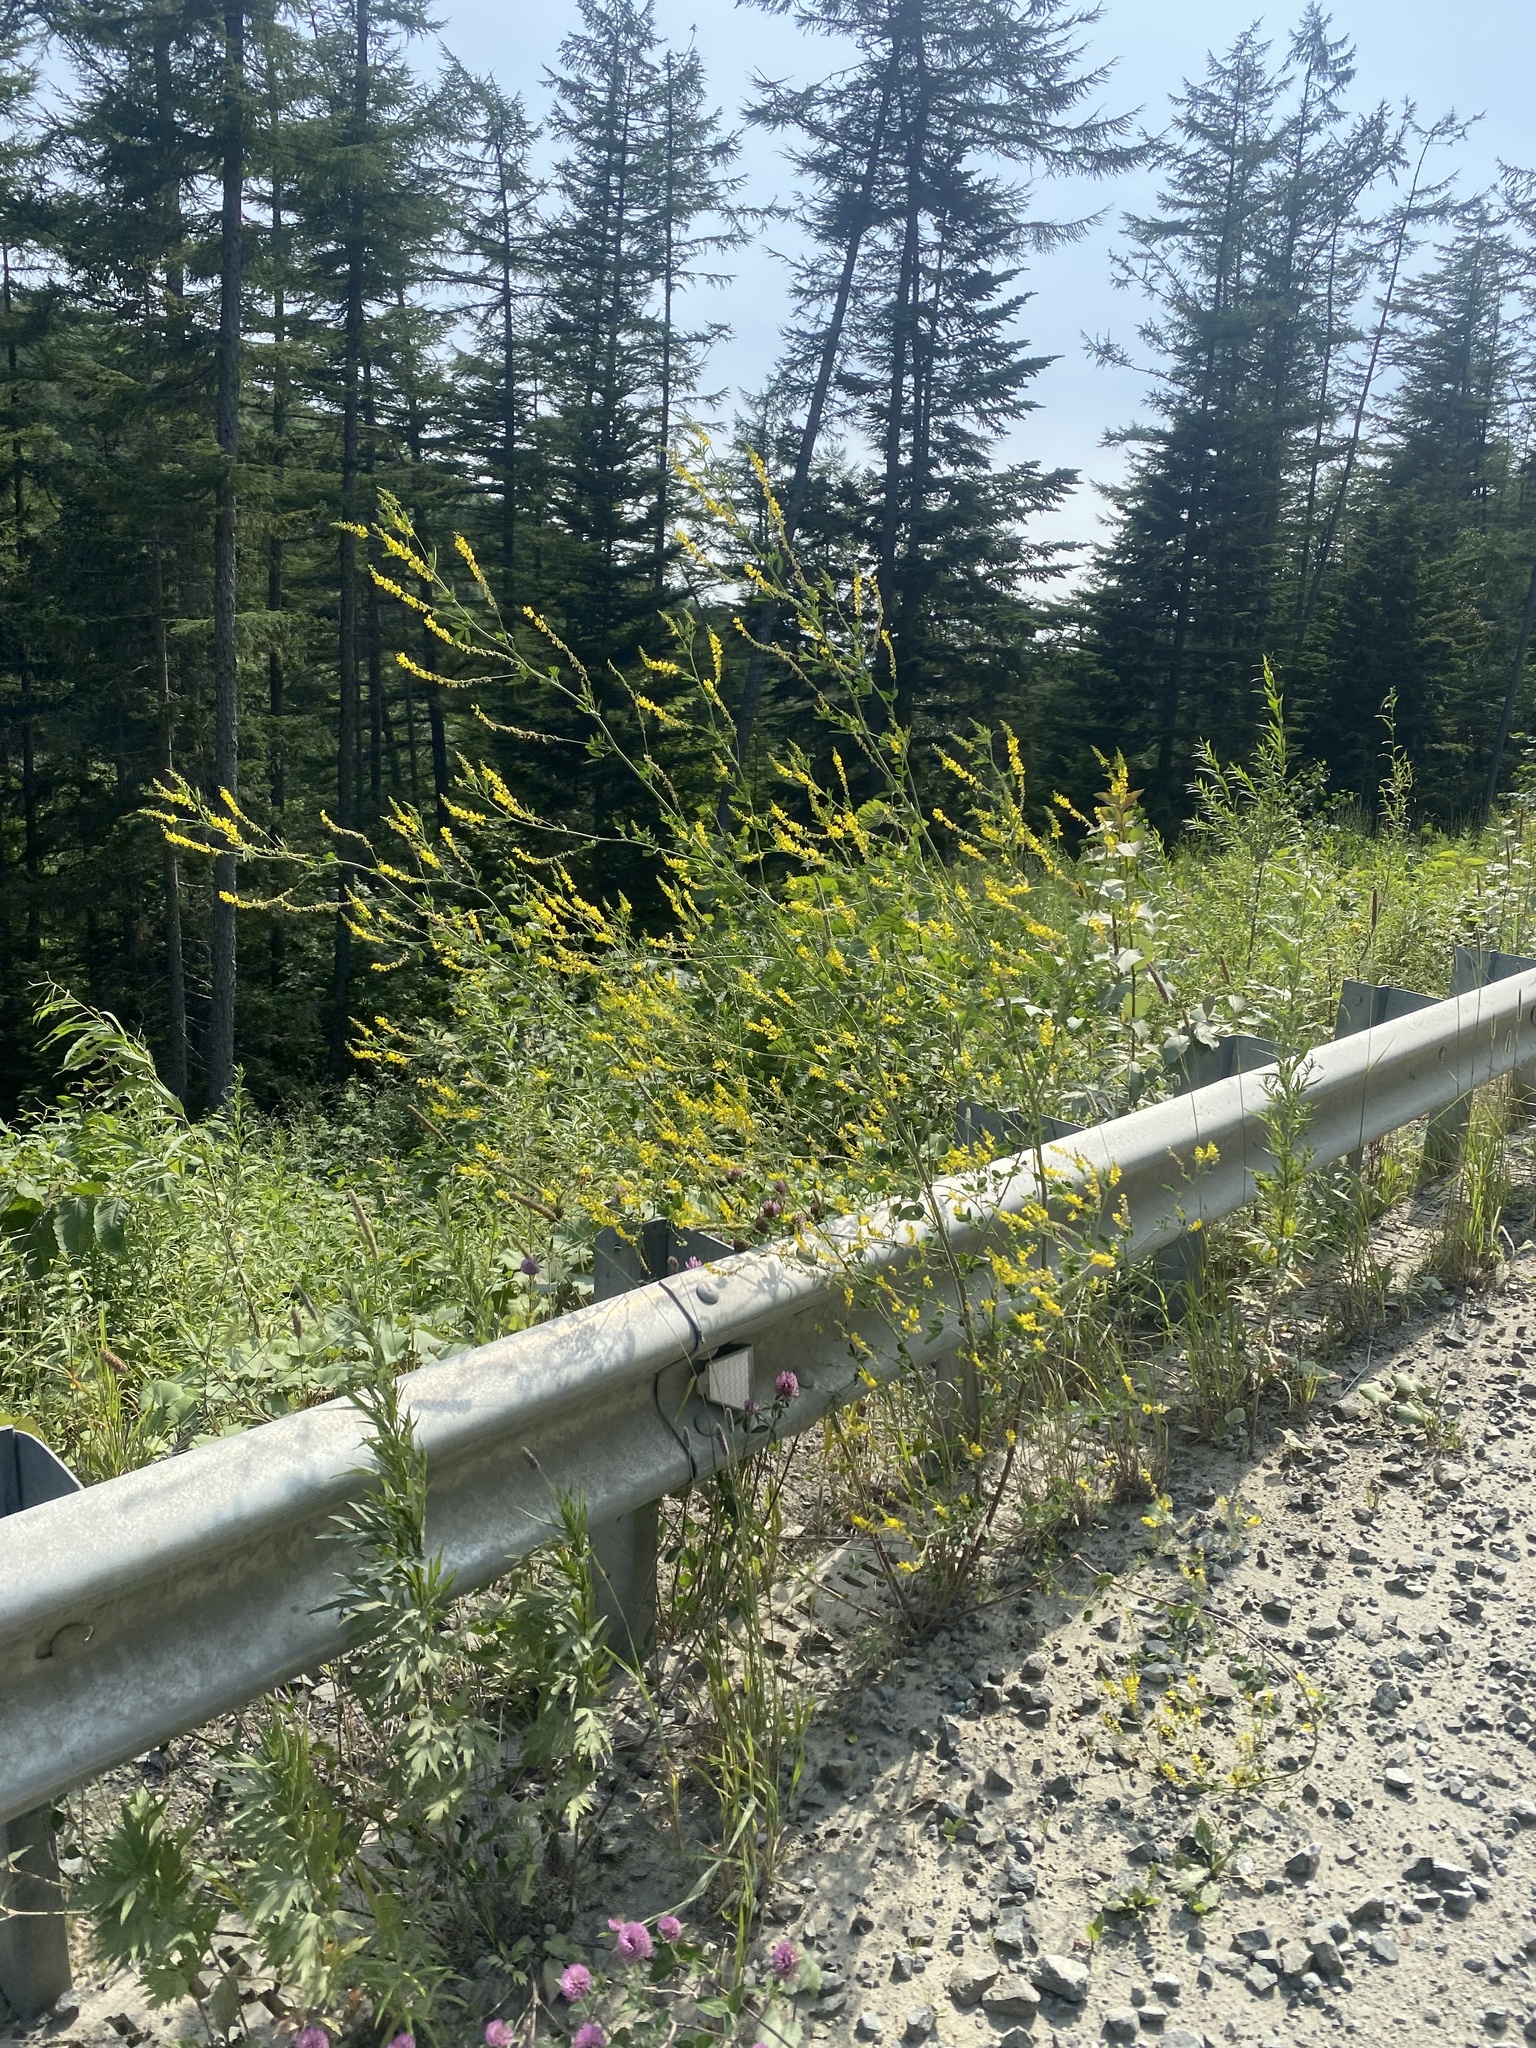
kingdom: Plantae
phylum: Tracheophyta
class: Magnoliopsida
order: Fabales
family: Fabaceae
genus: Melilotus
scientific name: Melilotus officinalis
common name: Sweetclover
